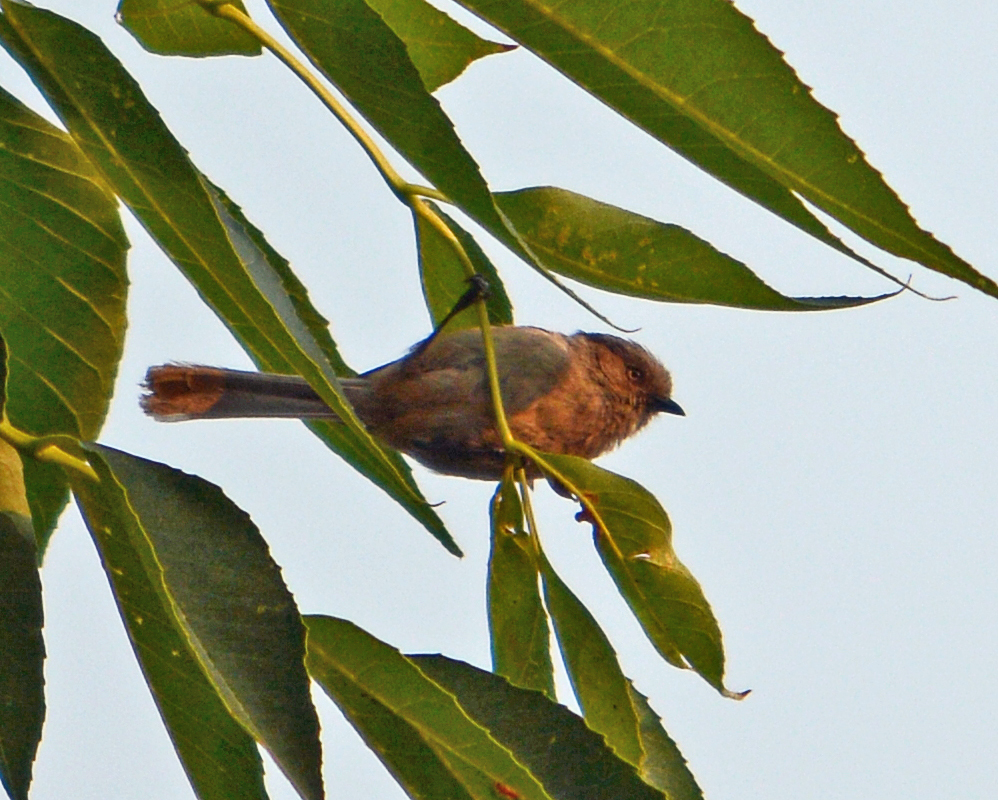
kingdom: Animalia
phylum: Chordata
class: Aves
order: Passeriformes
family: Aegithalidae
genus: Psaltriparus
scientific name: Psaltriparus minimus
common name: American bushtit
